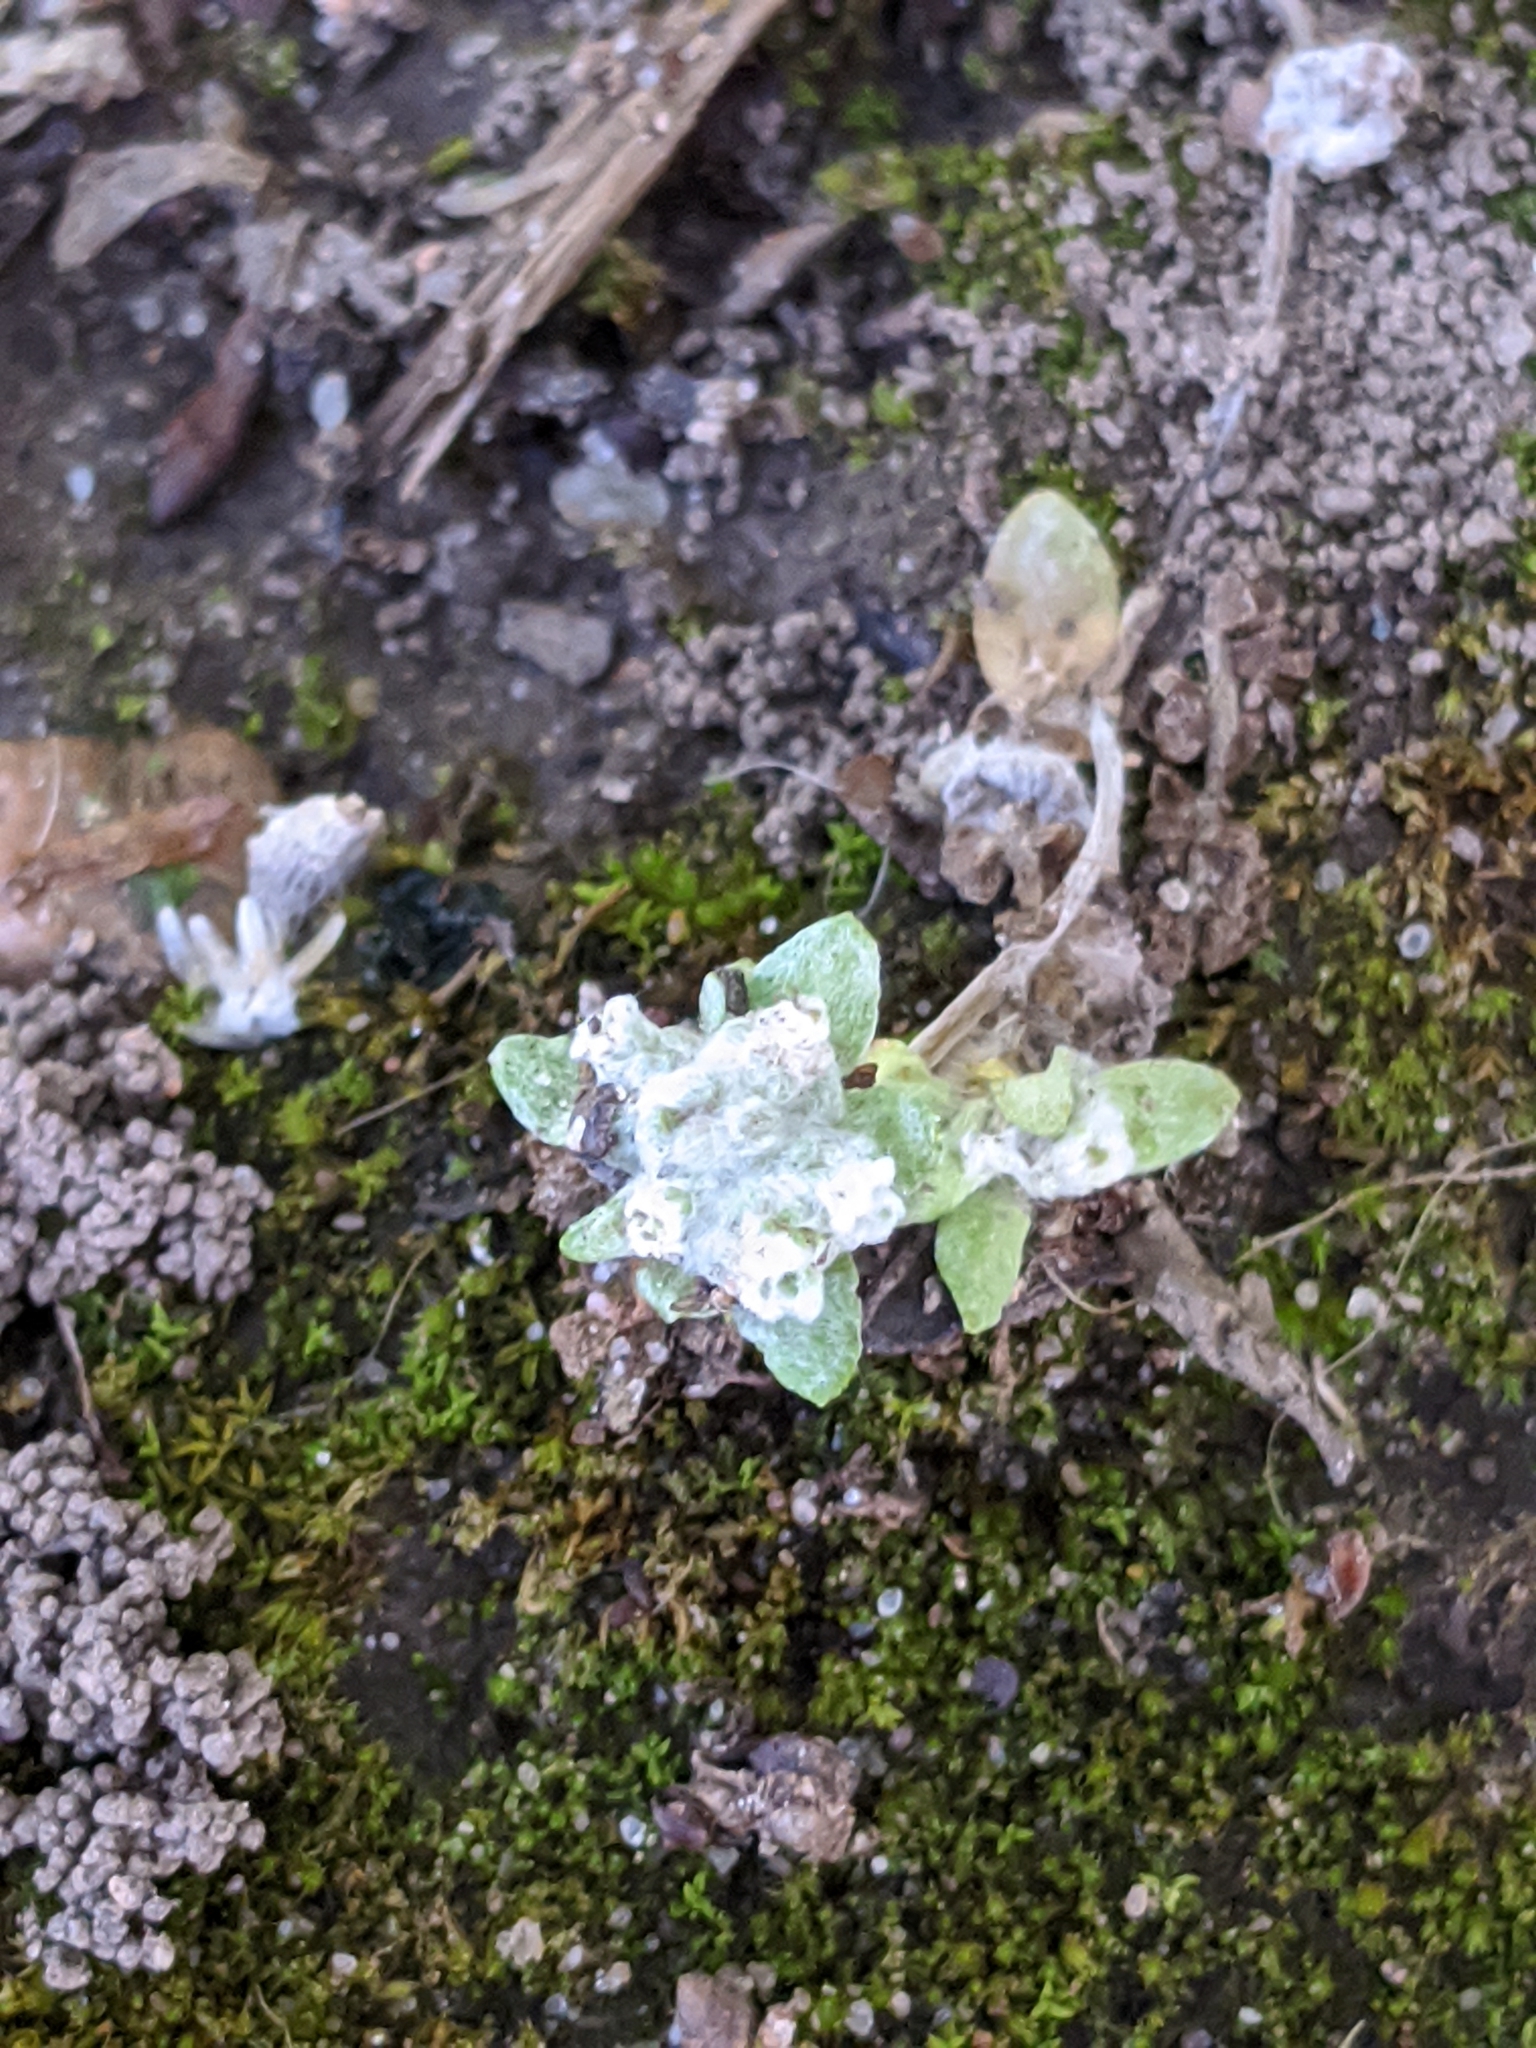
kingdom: Plantae
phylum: Tracheophyta
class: Magnoliopsida
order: Asterales
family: Asteraceae
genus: Diaperia
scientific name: Diaperia verna
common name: Many-stem rabbit-tobacco
